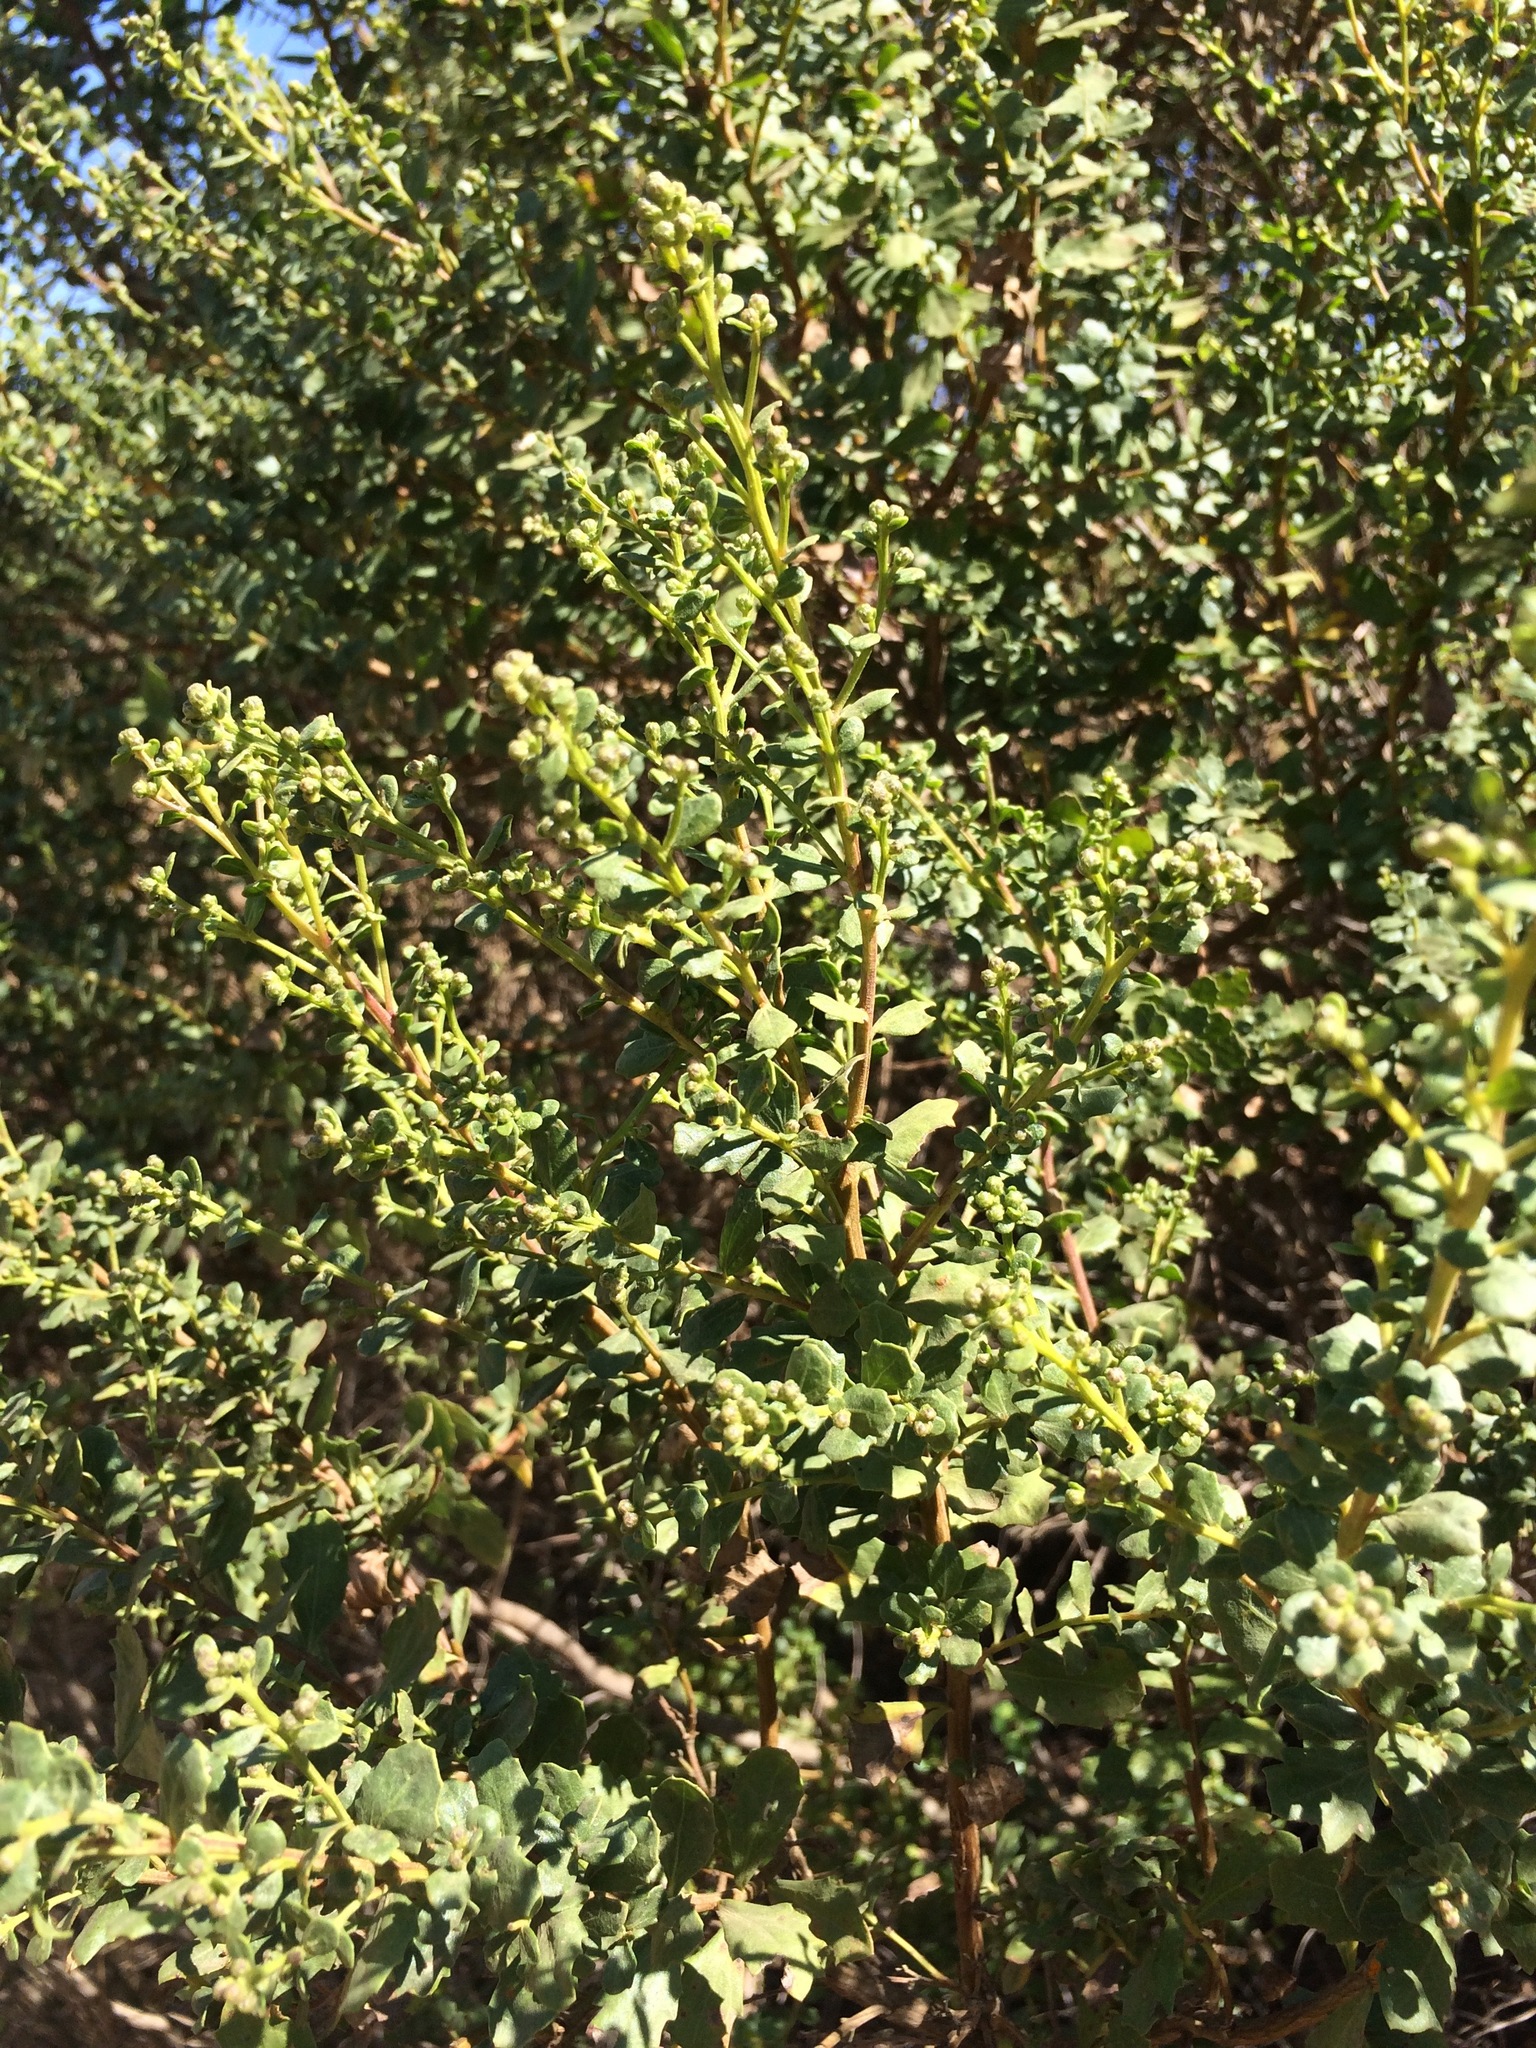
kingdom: Plantae
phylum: Tracheophyta
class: Magnoliopsida
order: Asterales
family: Asteraceae
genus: Baccharis
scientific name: Baccharis pilularis
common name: Coyotebrush
